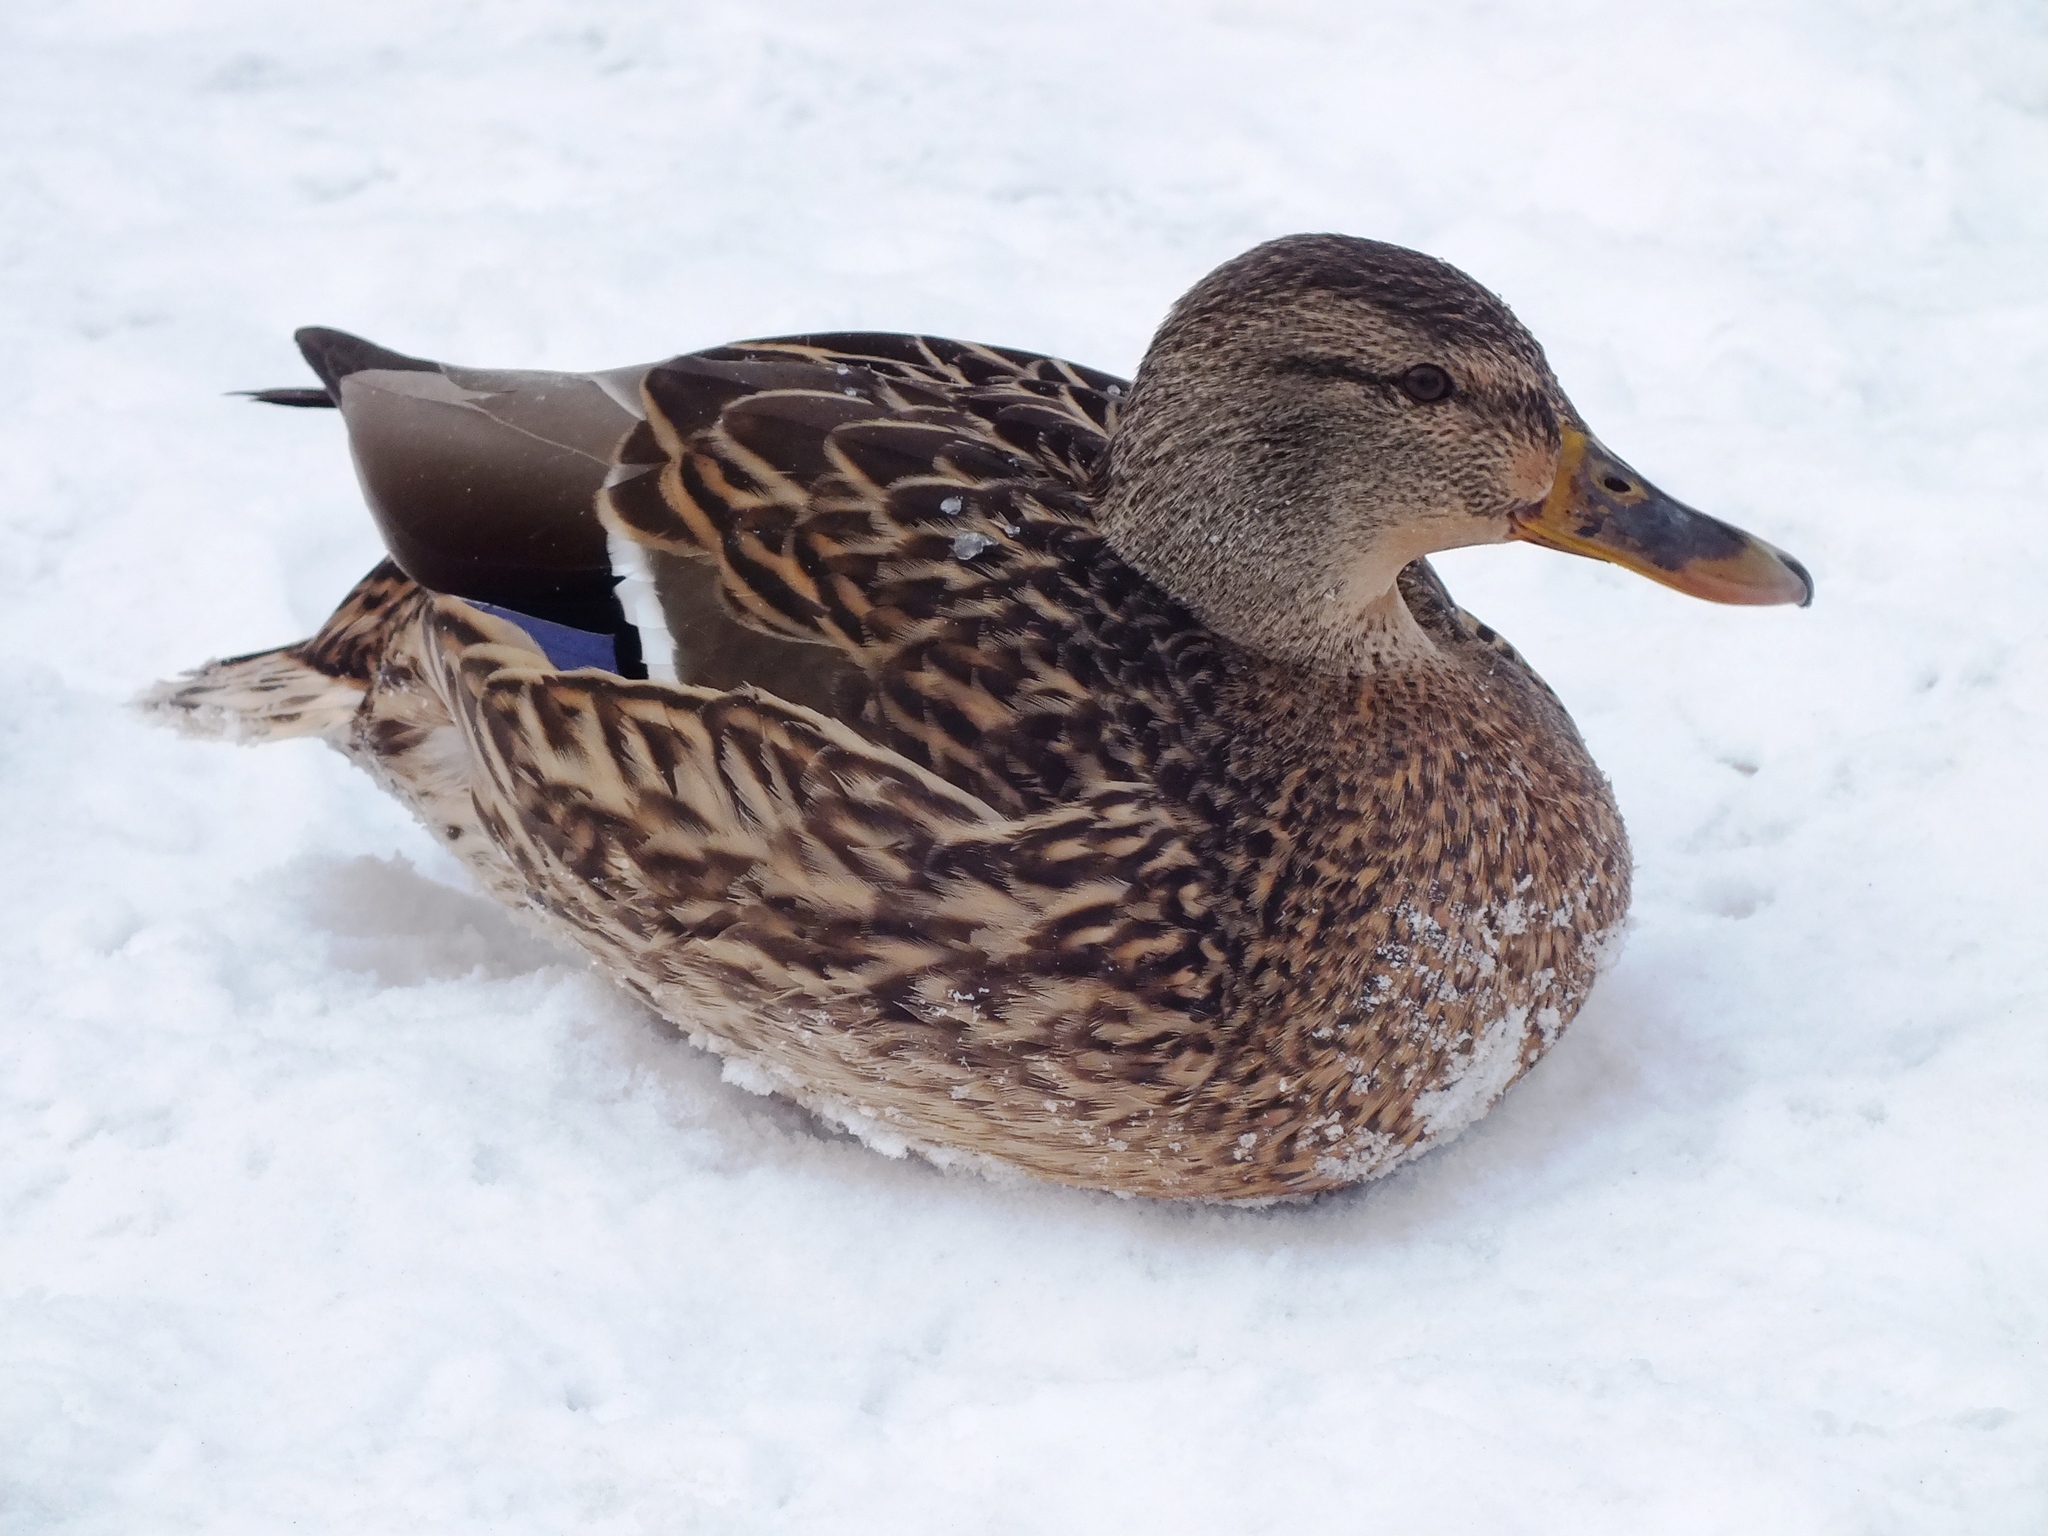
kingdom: Animalia
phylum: Chordata
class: Aves
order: Anseriformes
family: Anatidae
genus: Anas
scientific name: Anas platyrhynchos
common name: Mallard
